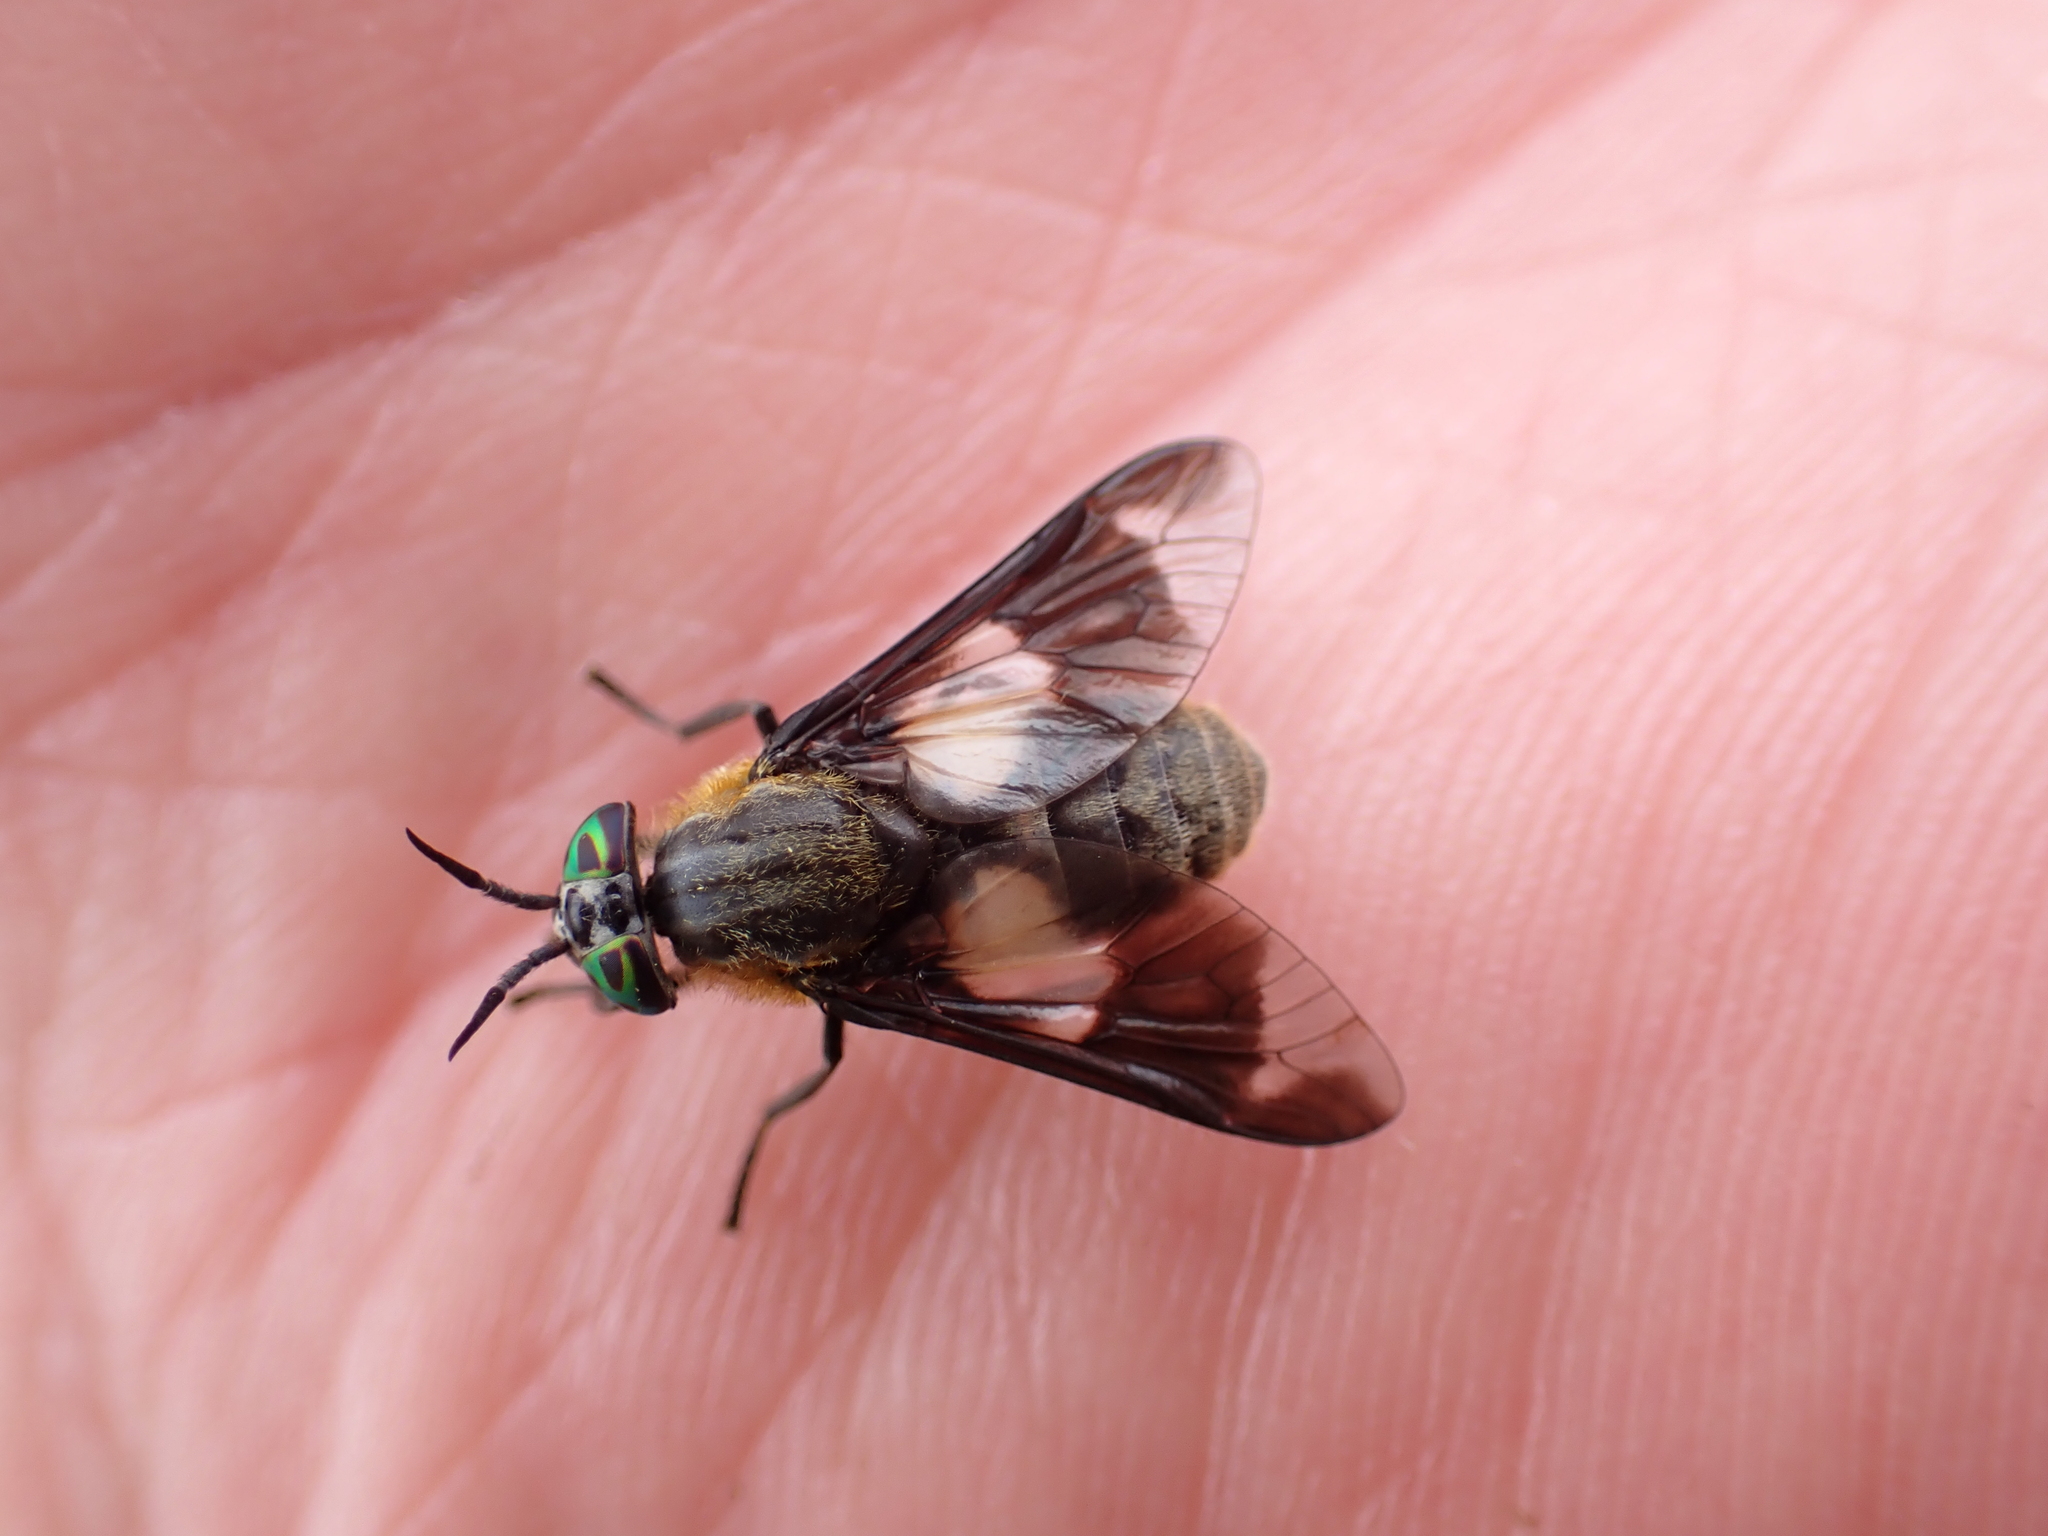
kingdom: Animalia
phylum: Arthropoda
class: Insecta
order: Diptera
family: Tabanidae
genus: Chrysops
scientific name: Chrysops caecutiens
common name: Splayed deerfly
